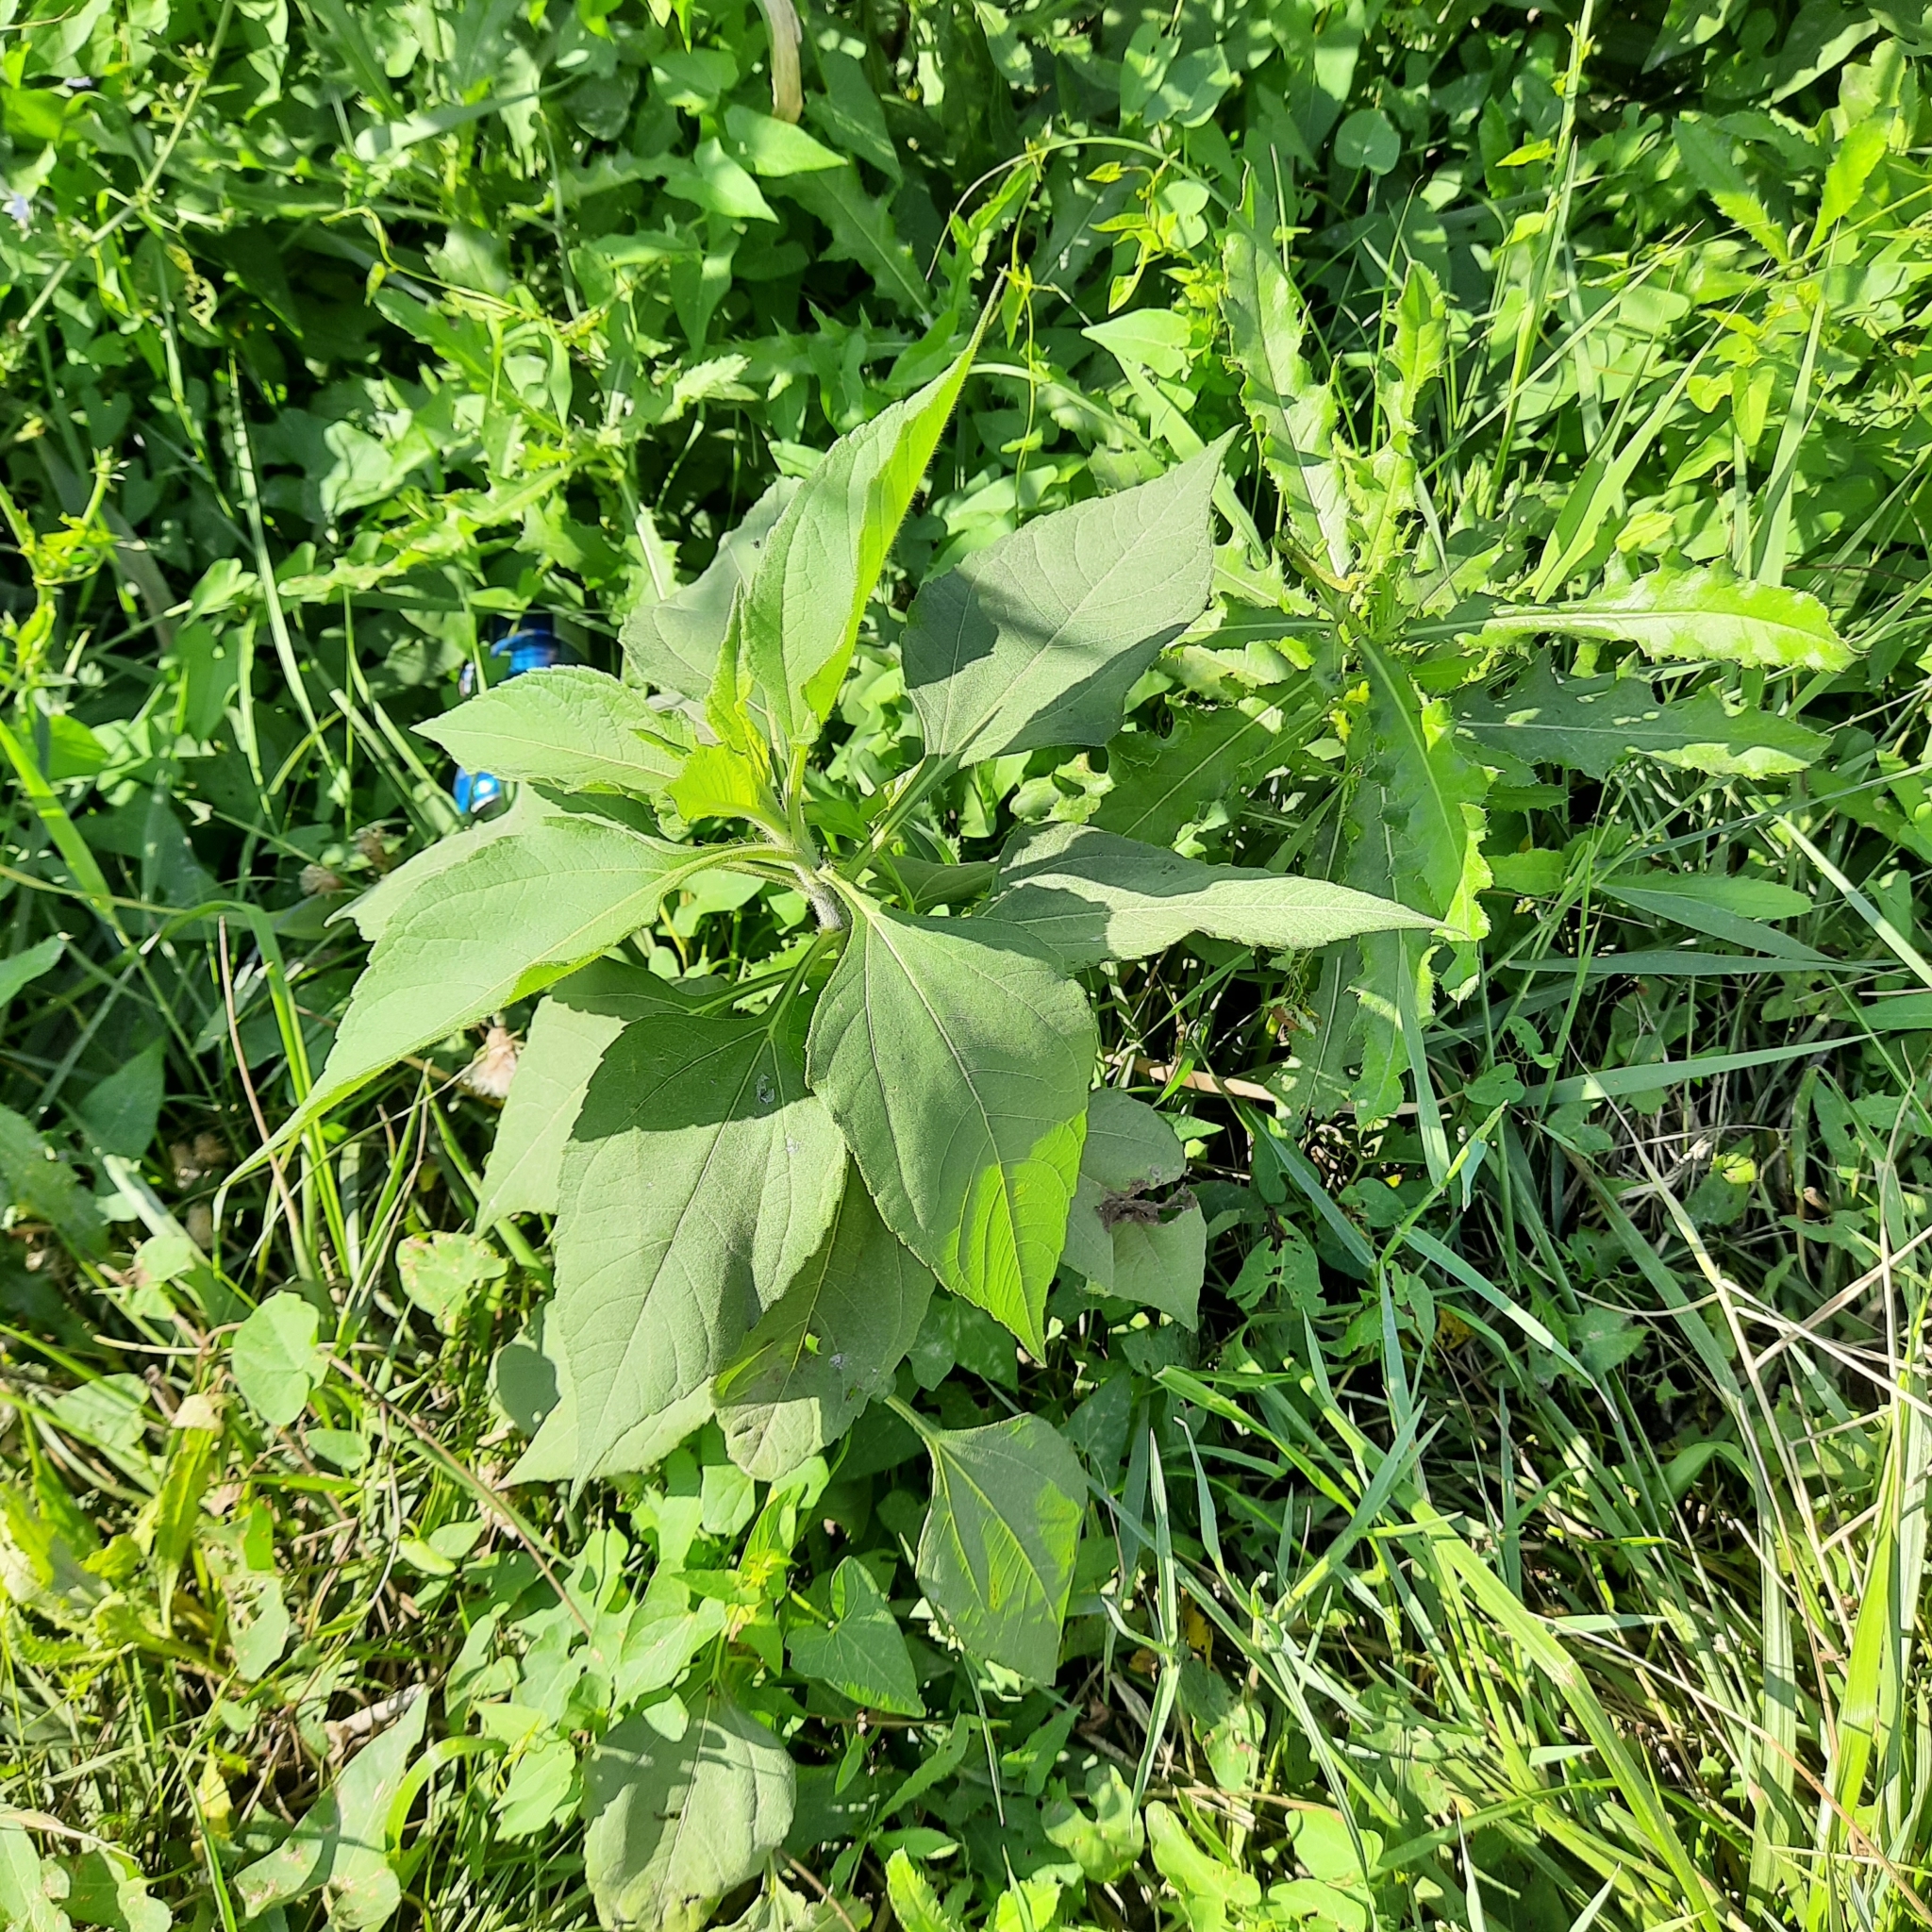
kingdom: Plantae
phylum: Tracheophyta
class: Magnoliopsida
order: Asterales
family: Asteraceae
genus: Helianthus
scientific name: Helianthus tuberosus
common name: Jerusalem artichoke
